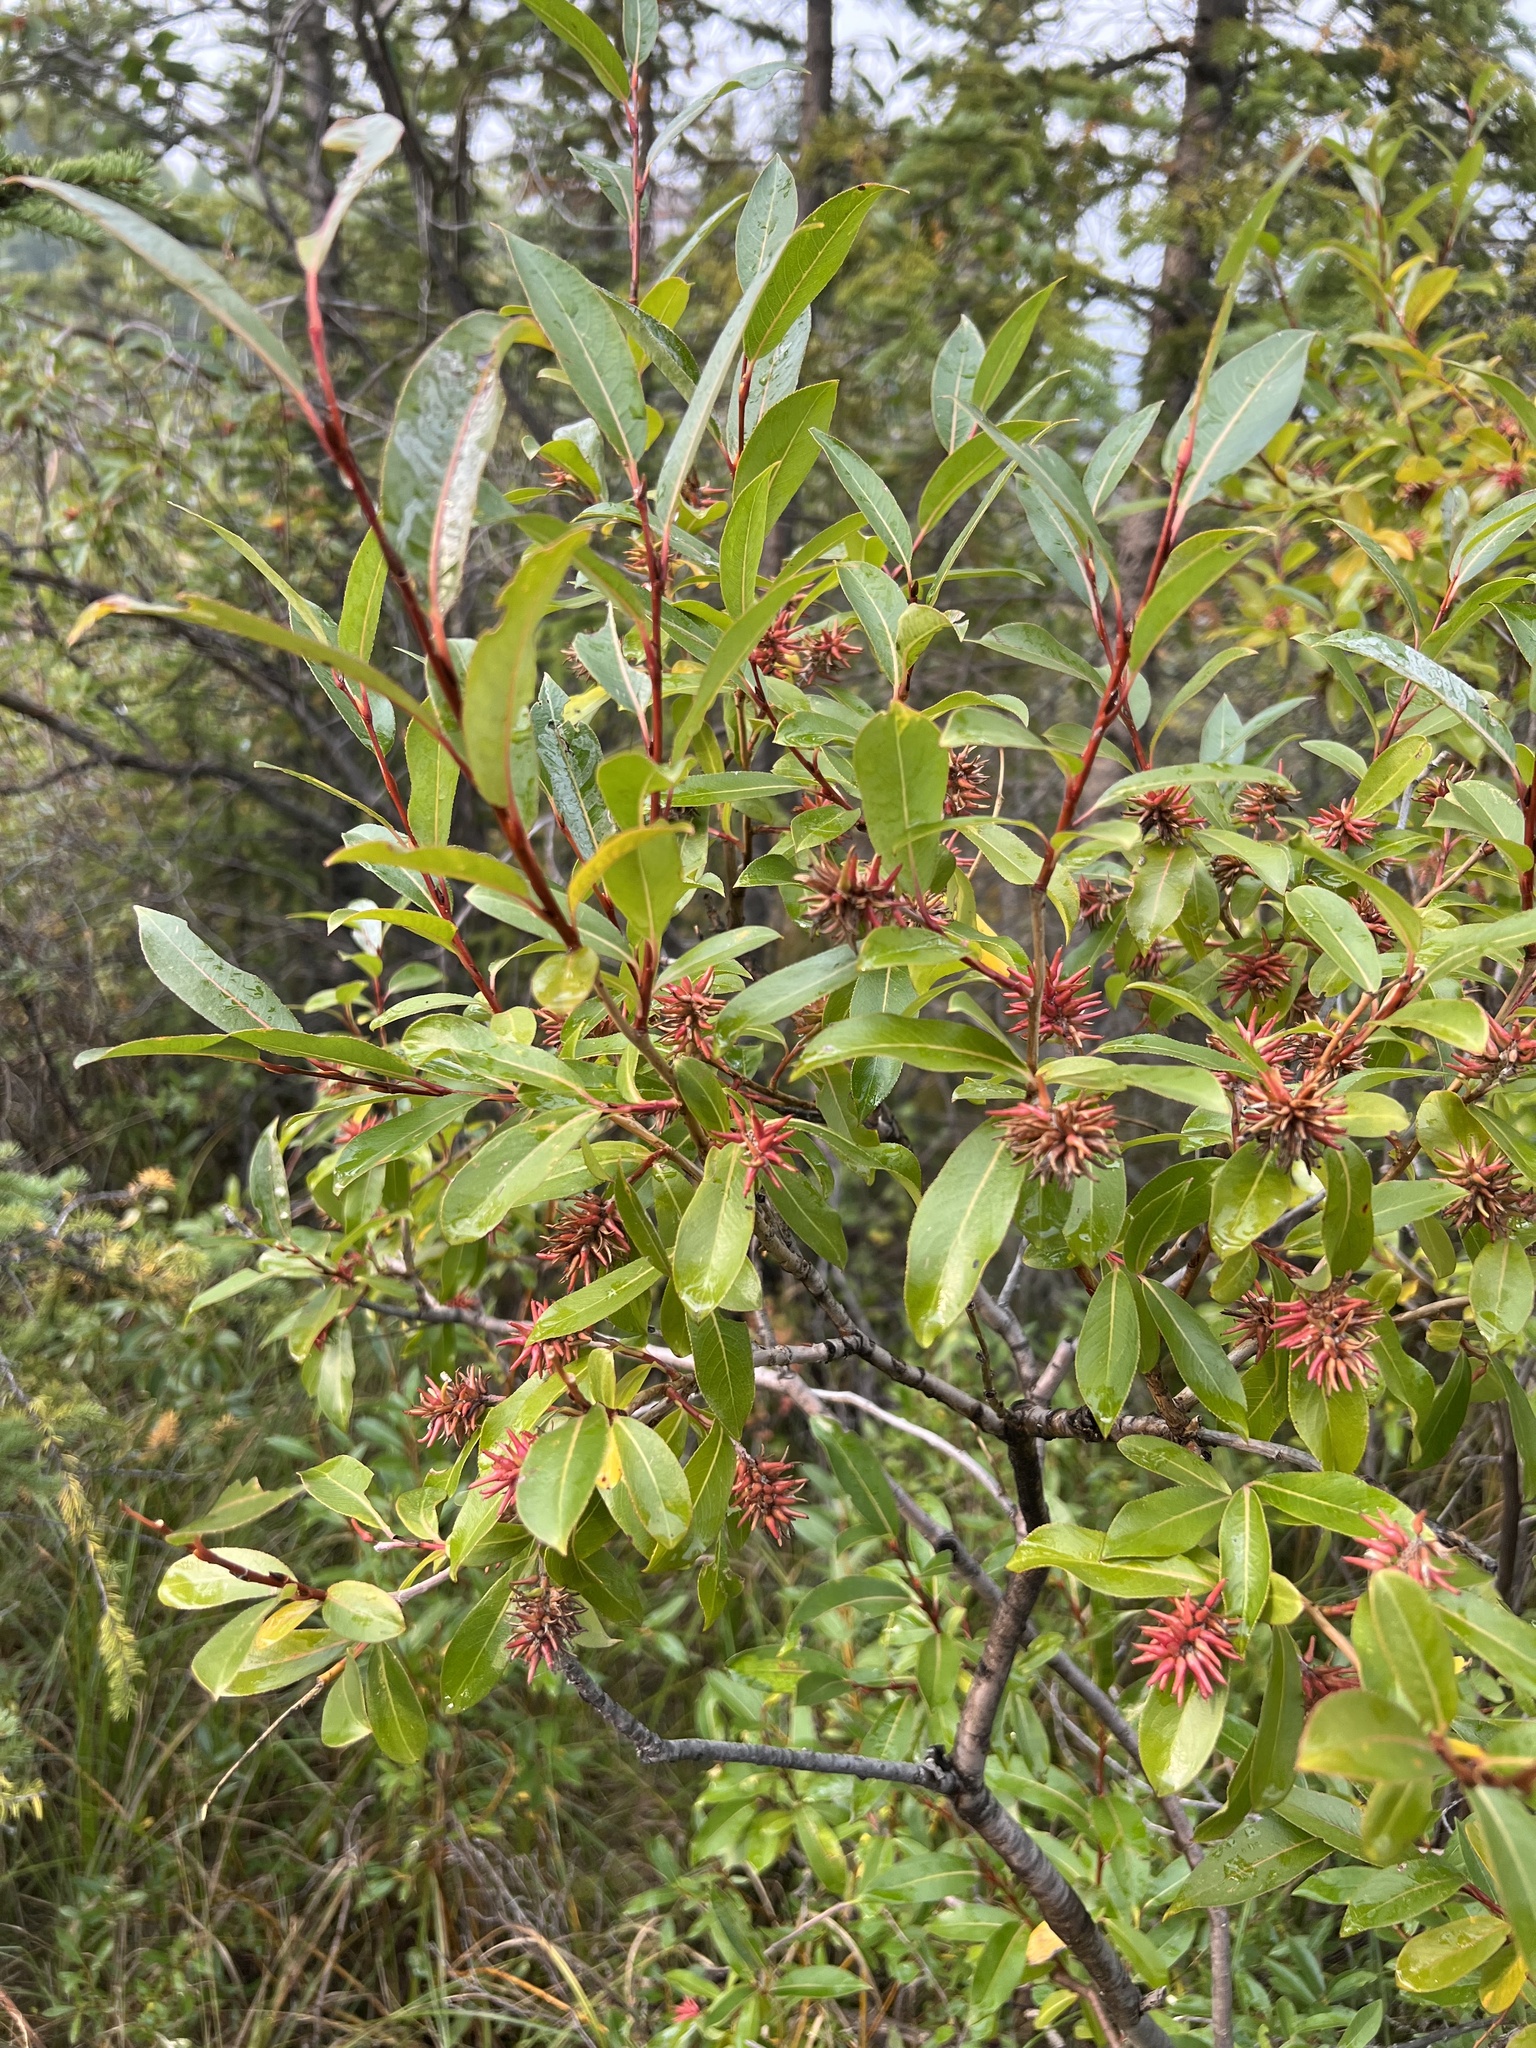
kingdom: Plantae
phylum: Tracheophyta
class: Magnoliopsida
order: Malpighiales
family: Salicaceae
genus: Salix
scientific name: Salix serissima
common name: Autumn willow
